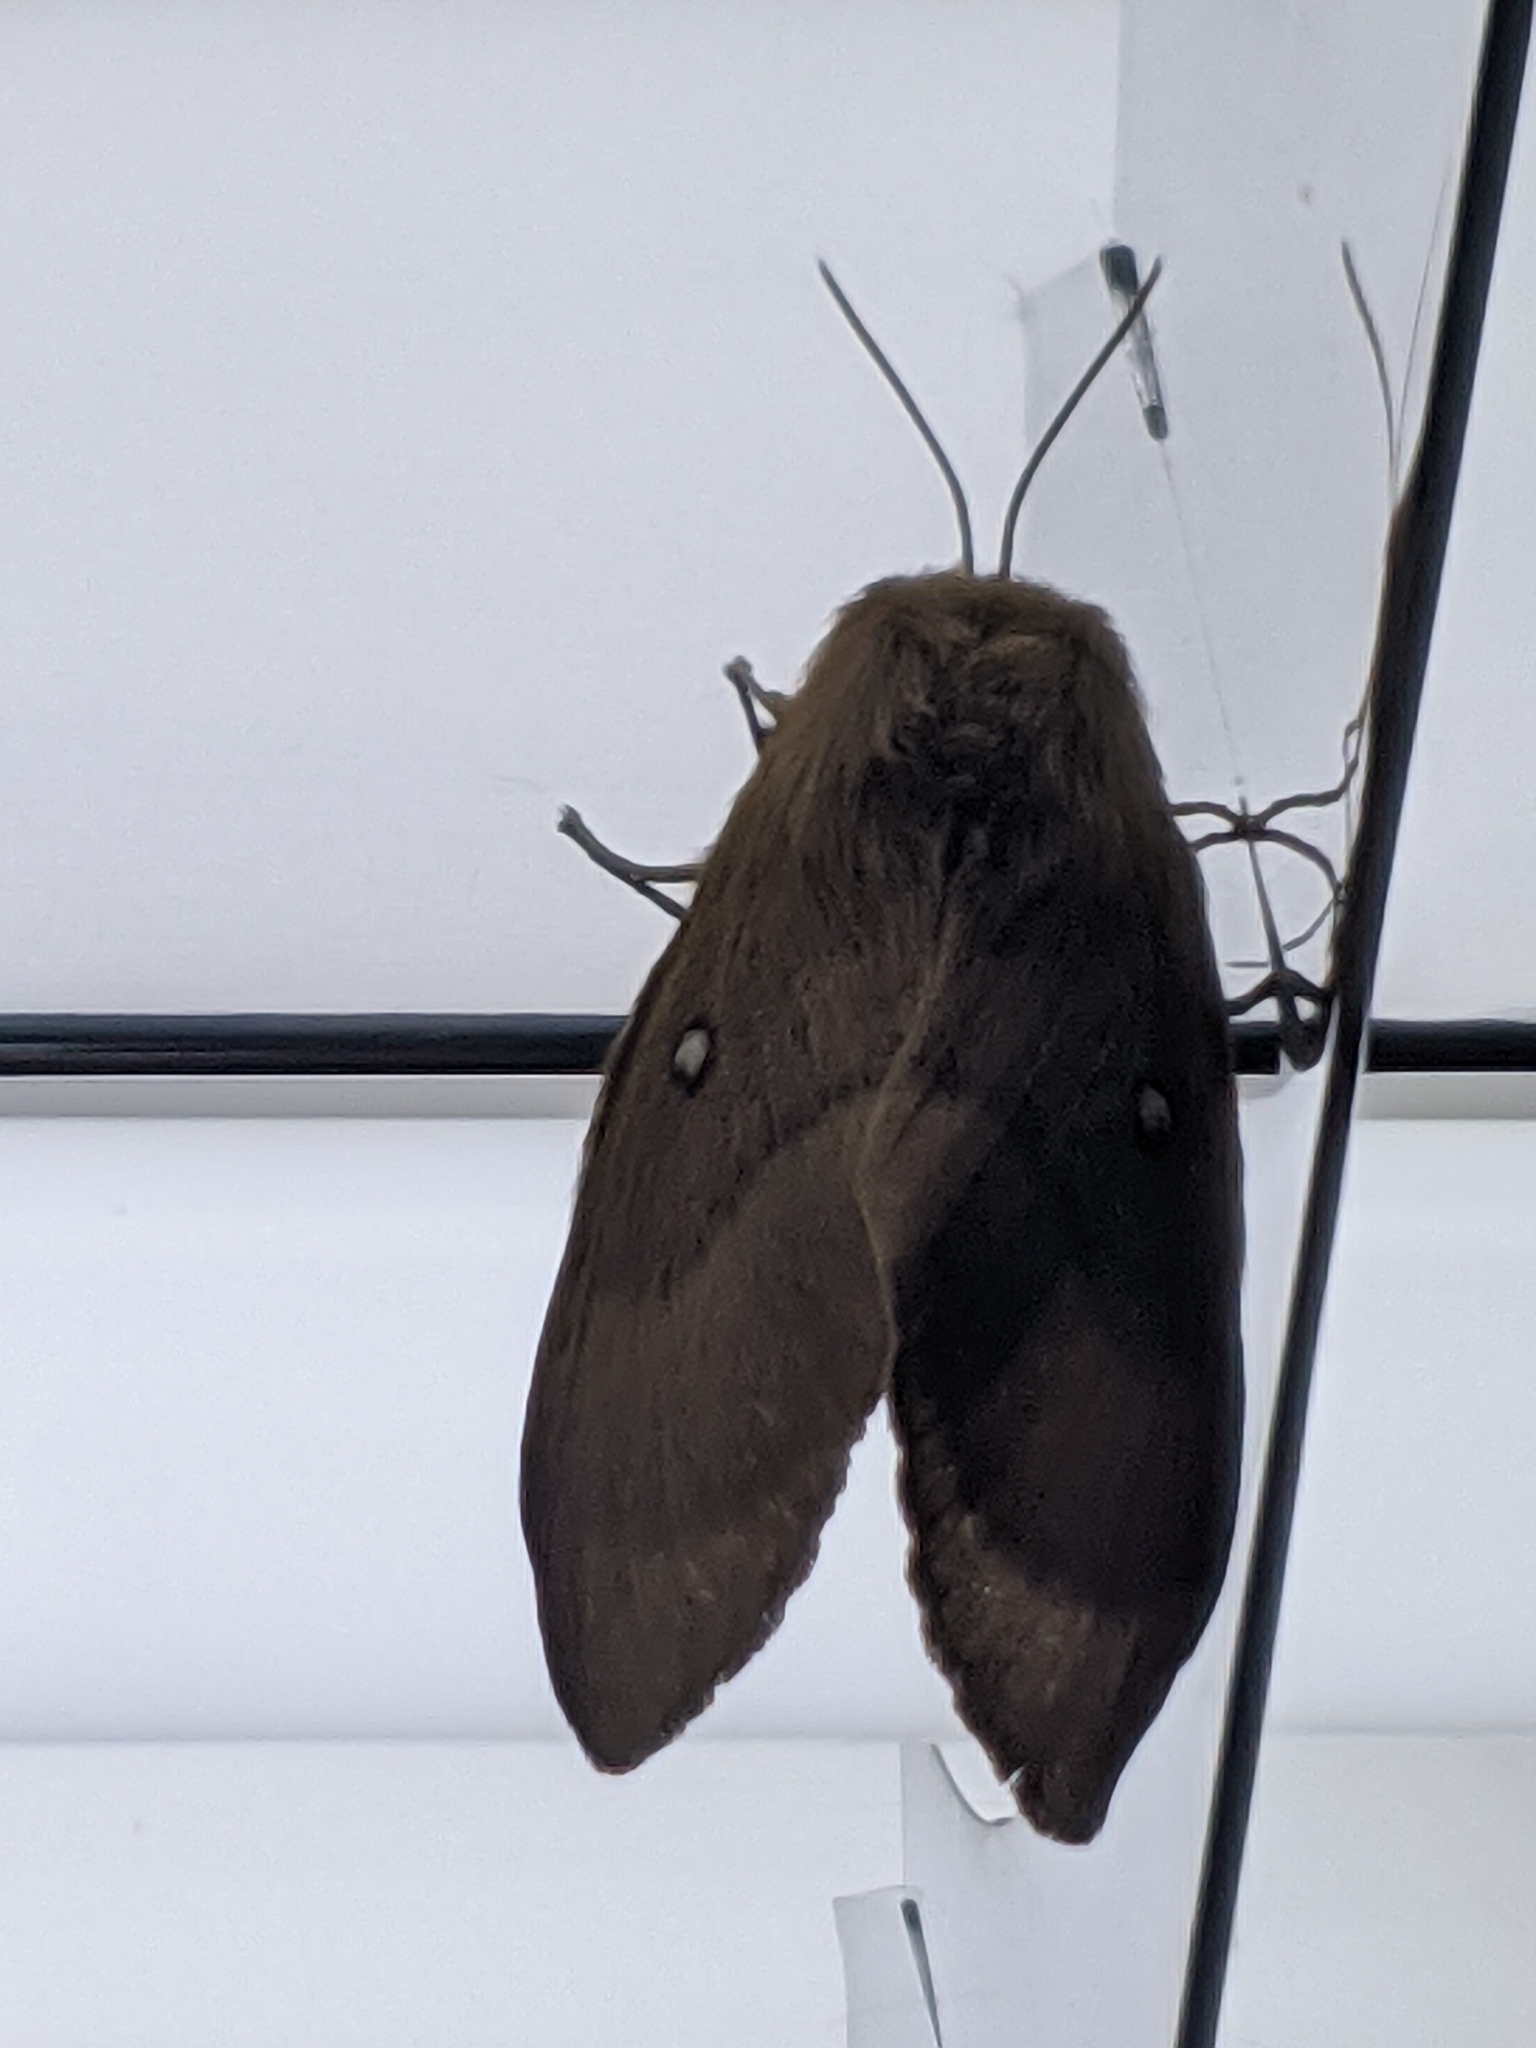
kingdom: Animalia
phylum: Arthropoda
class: Insecta
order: Lepidoptera
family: Lasiocampidae
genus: Lasiocampa
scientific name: Lasiocampa quercus
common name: Oak eggar
